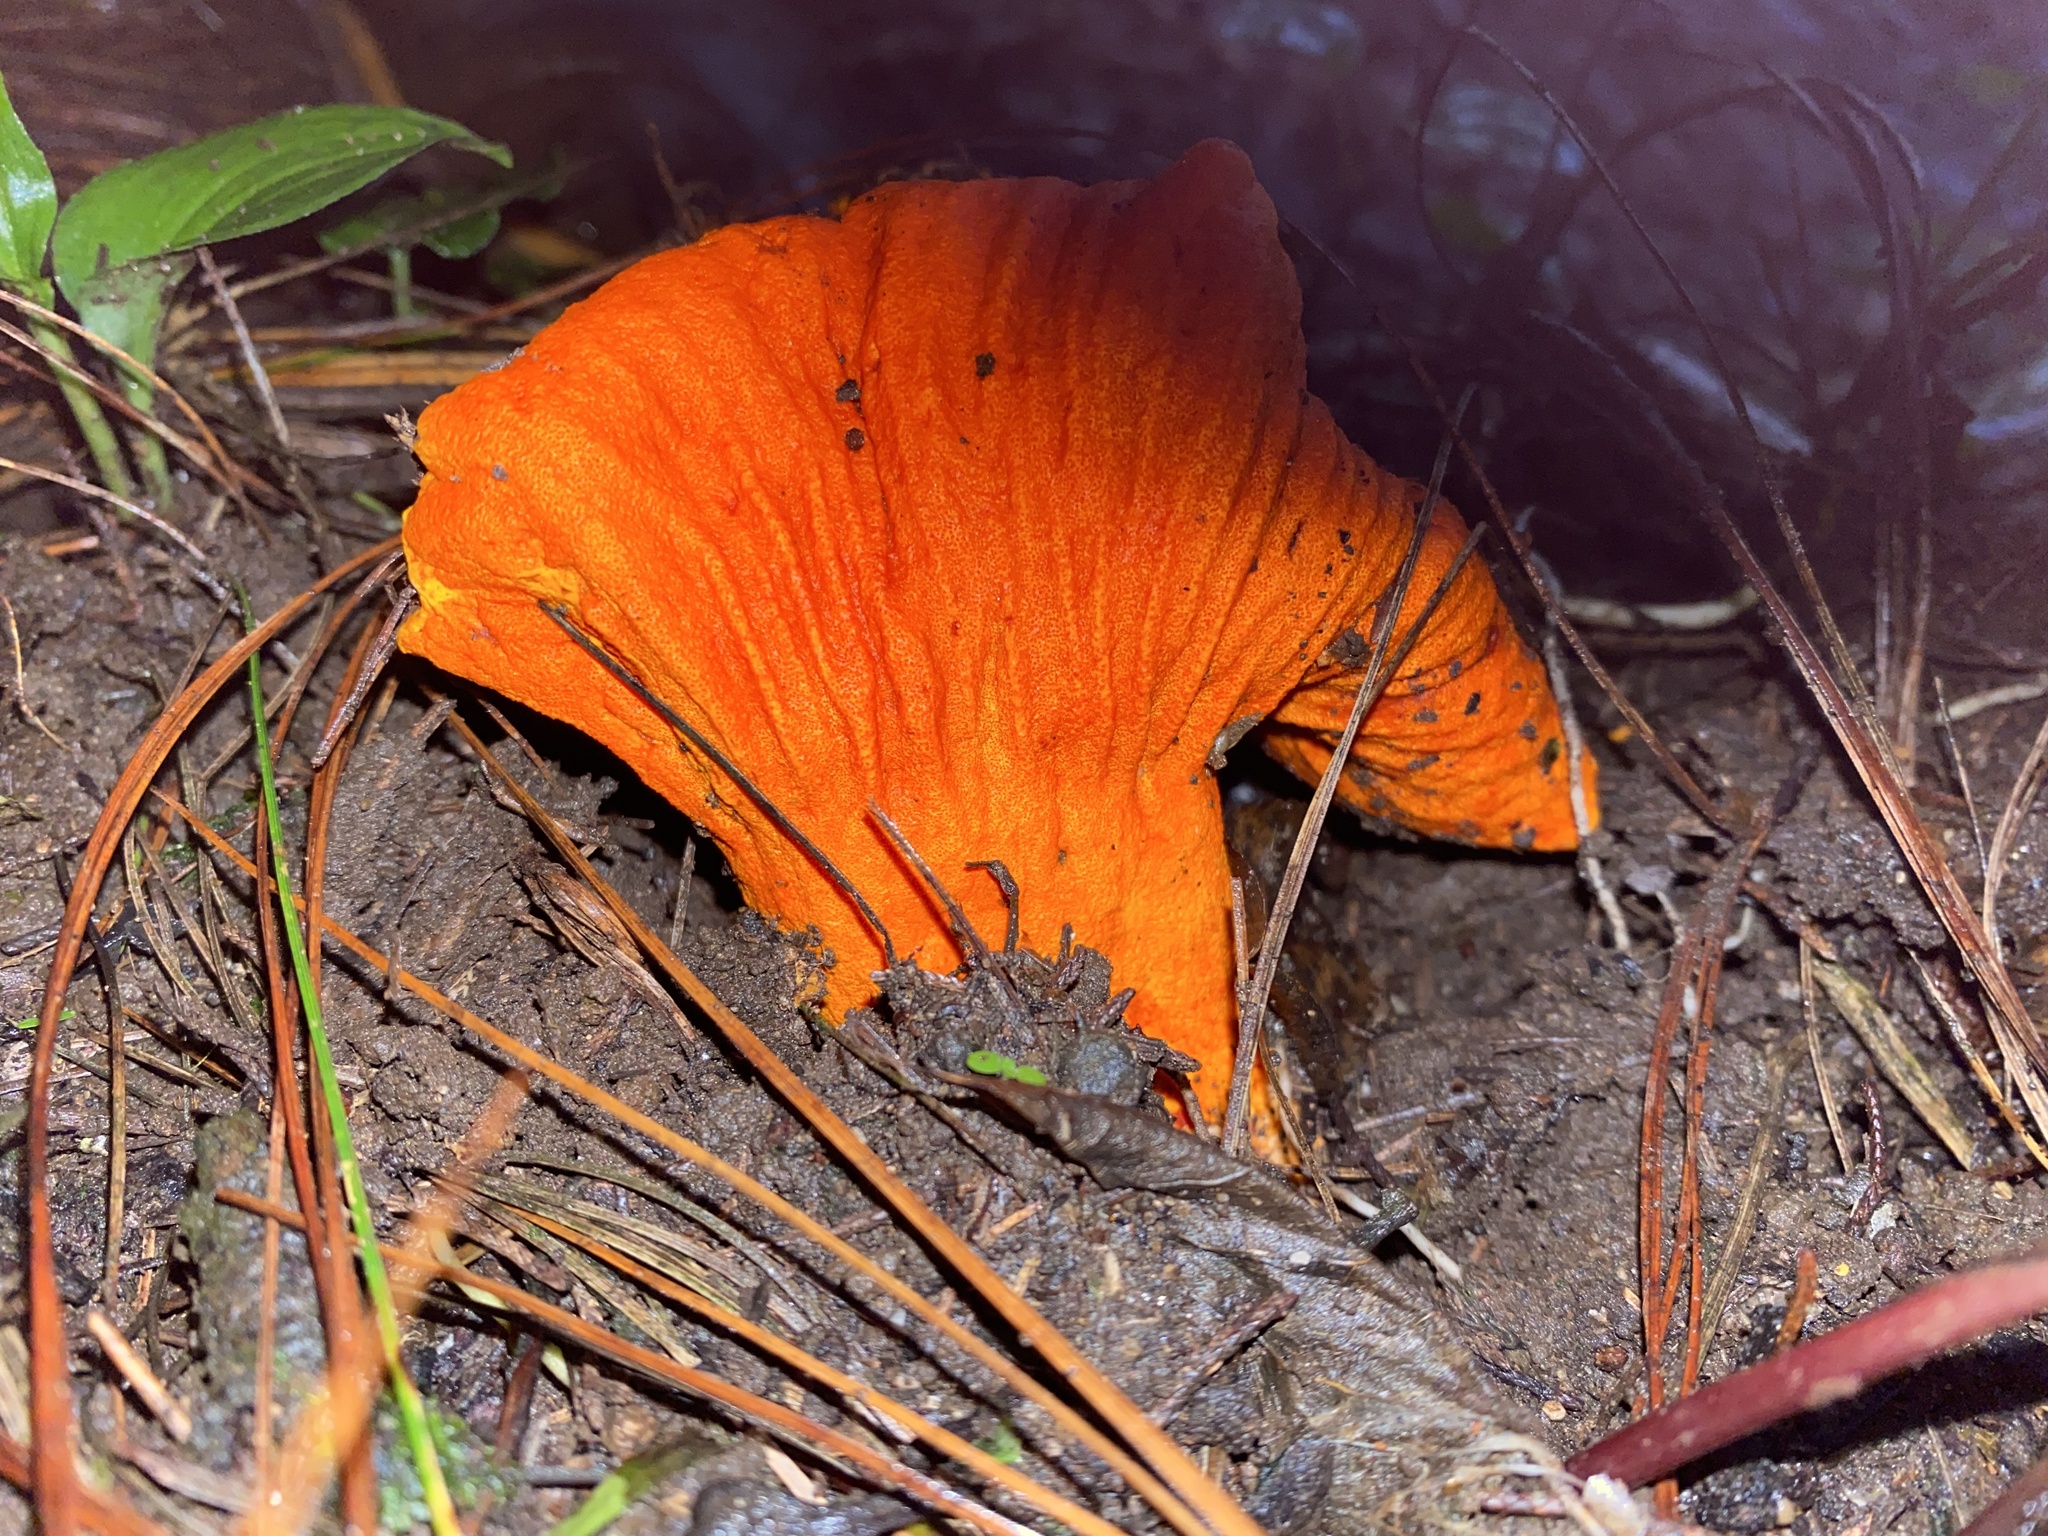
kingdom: Fungi
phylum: Ascomycota
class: Sordariomycetes
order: Hypocreales
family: Hypocreaceae
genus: Hypomyces
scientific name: Hypomyces lactifluorum
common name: Lobster mushroom
